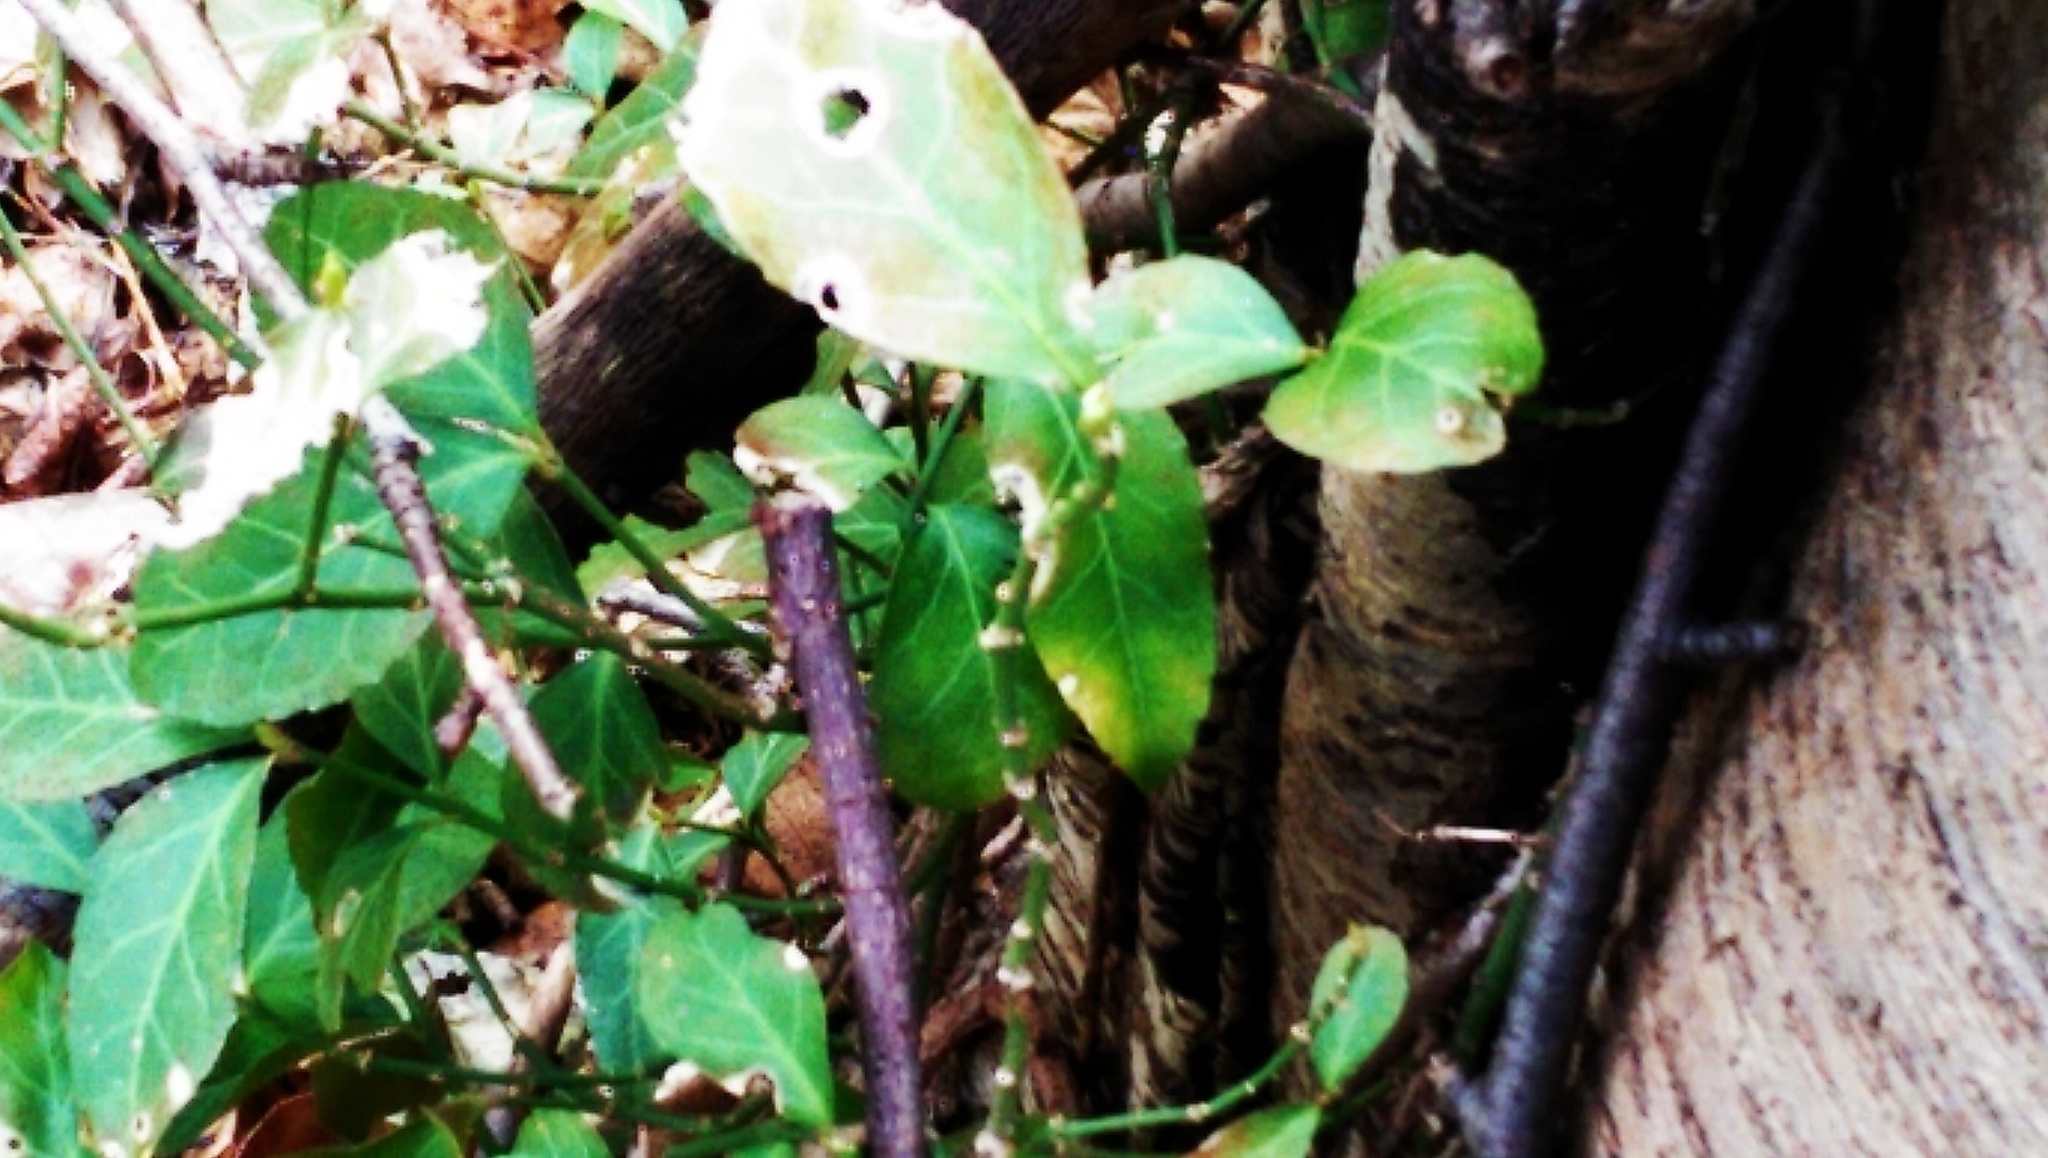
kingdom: Plantae
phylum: Tracheophyta
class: Magnoliopsida
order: Celastrales
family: Celastraceae
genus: Euonymus
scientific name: Euonymus fortunei
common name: Climbing euonymus
